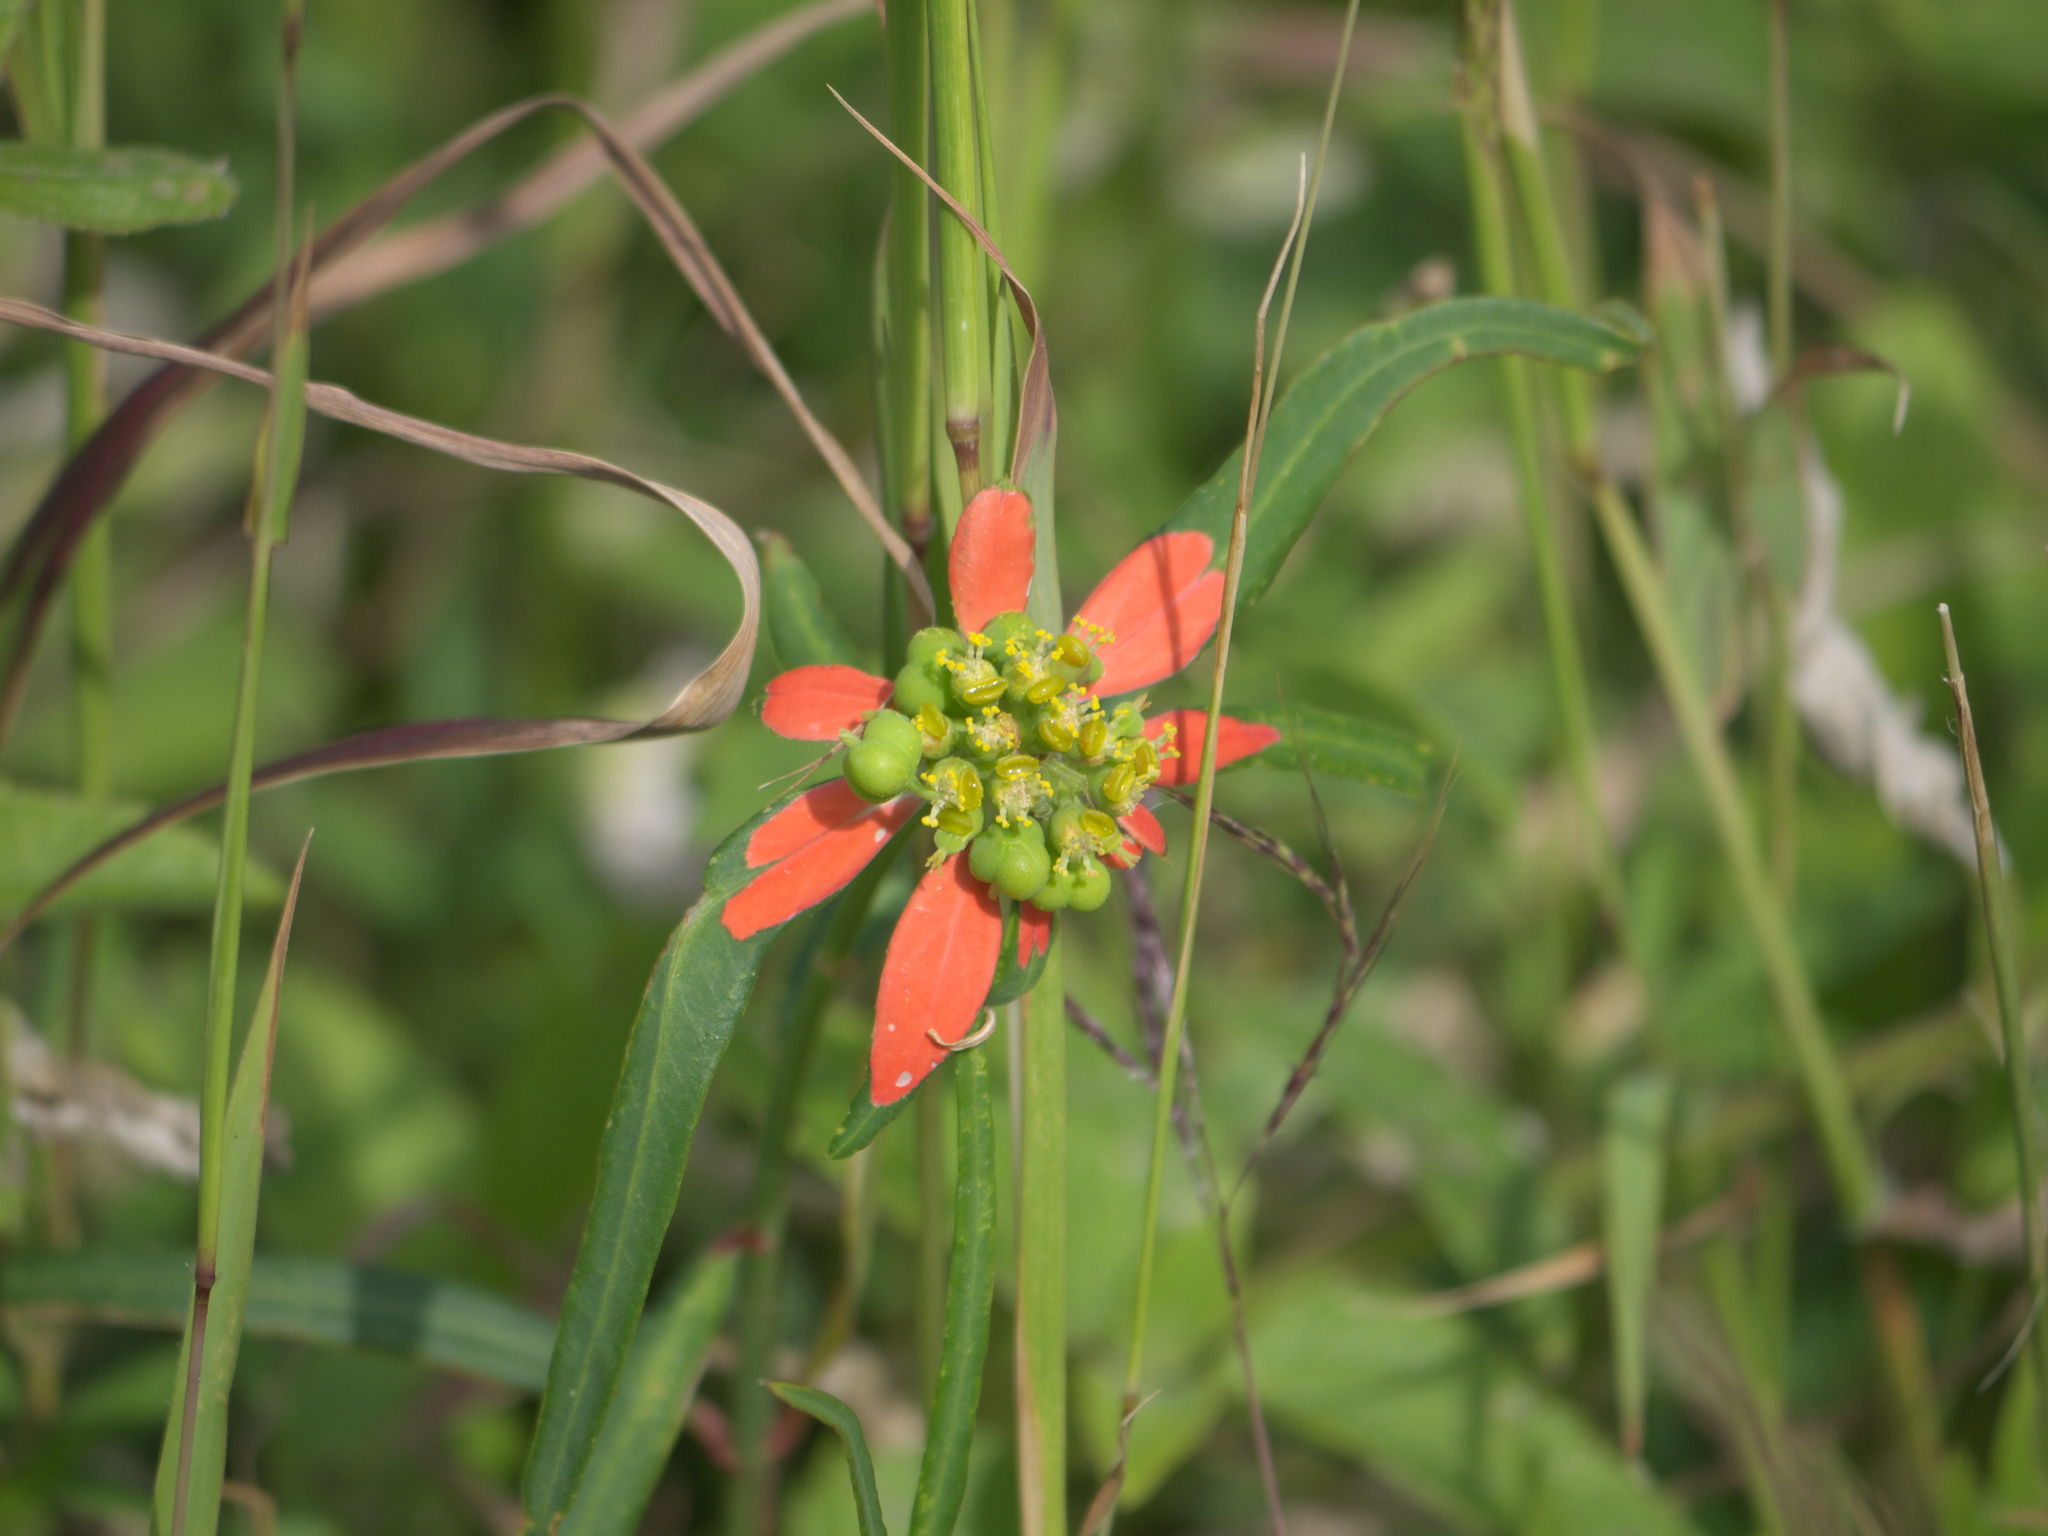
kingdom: Plantae
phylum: Tracheophyta
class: Magnoliopsida
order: Malpighiales
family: Euphorbiaceae
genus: Euphorbia
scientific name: Euphorbia heterophylla
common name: Mexican fireplant
